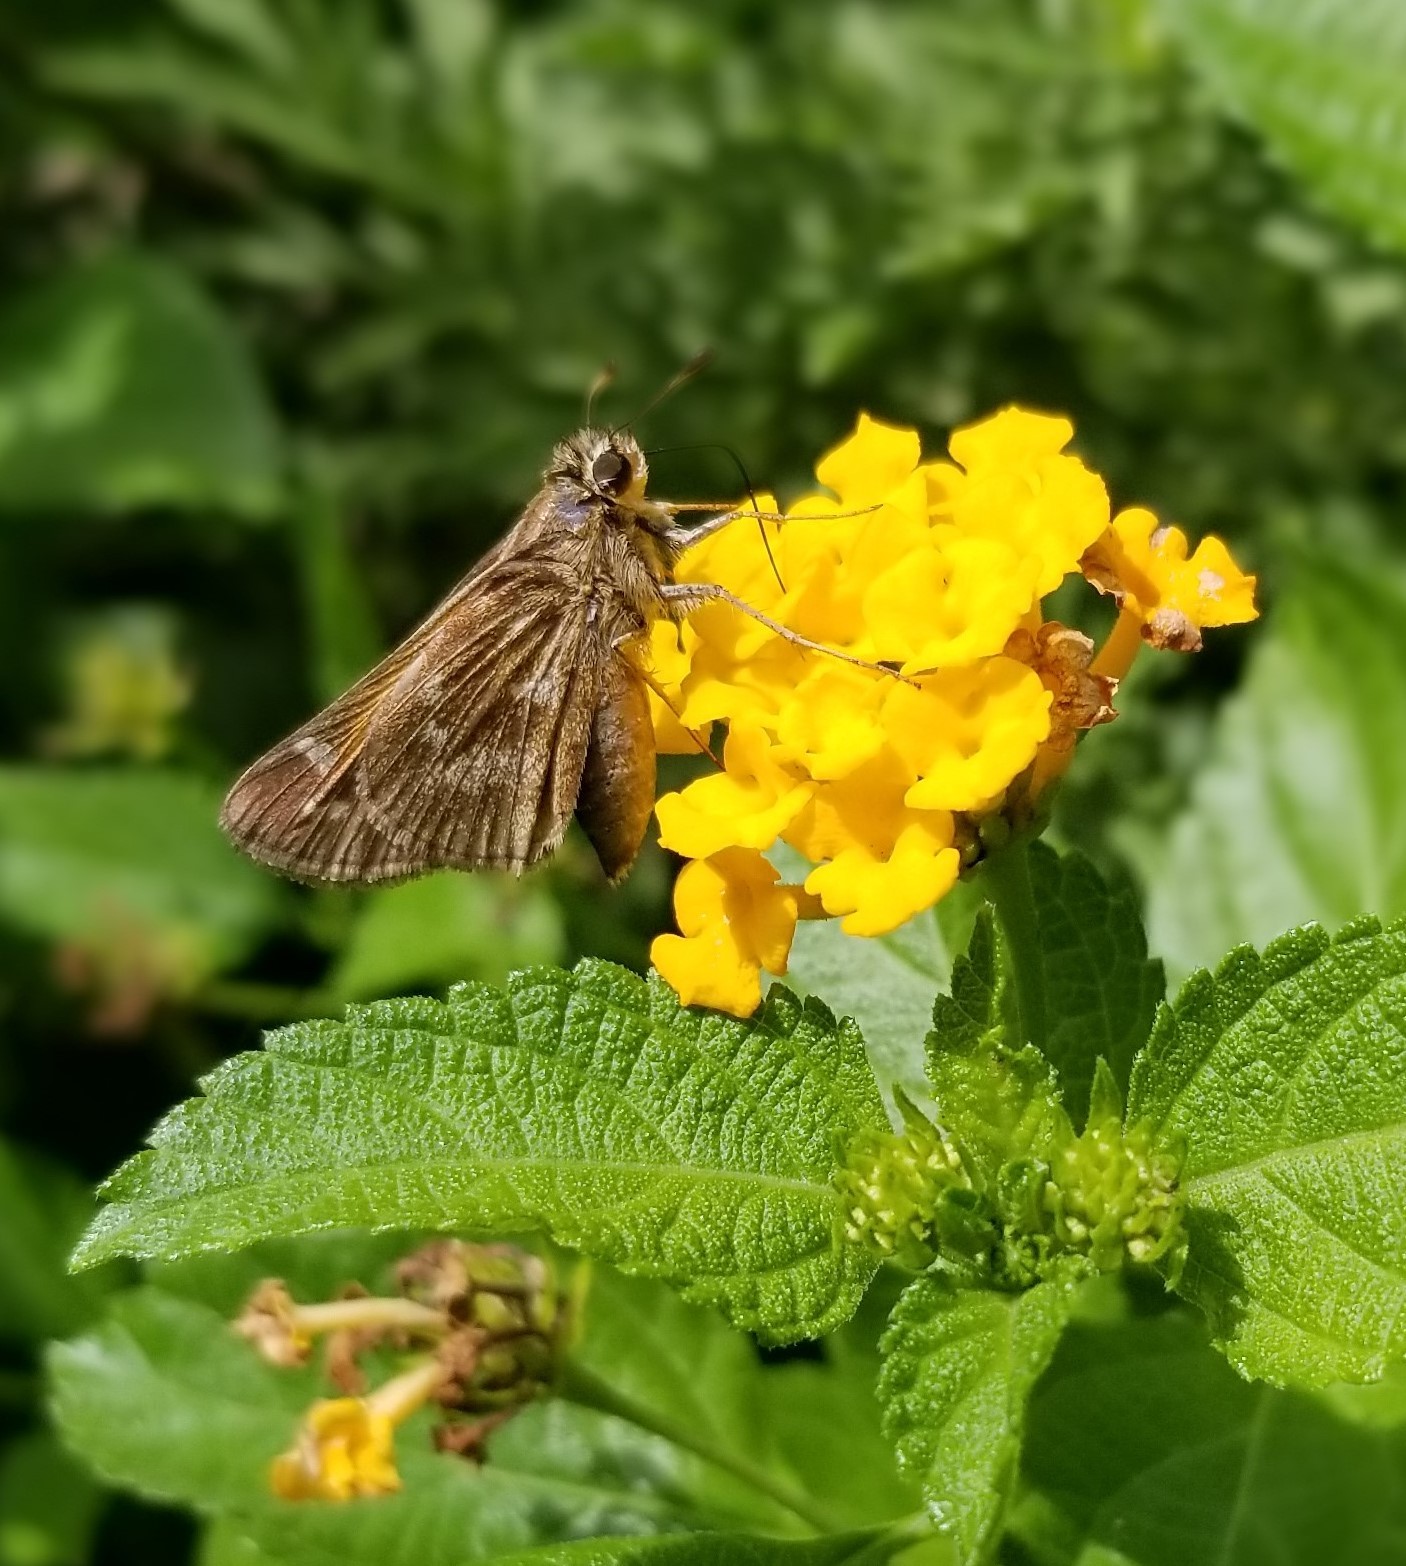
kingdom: Animalia
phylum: Arthropoda
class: Insecta
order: Lepidoptera
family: Hesperiidae
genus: Atalopedes
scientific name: Atalopedes
